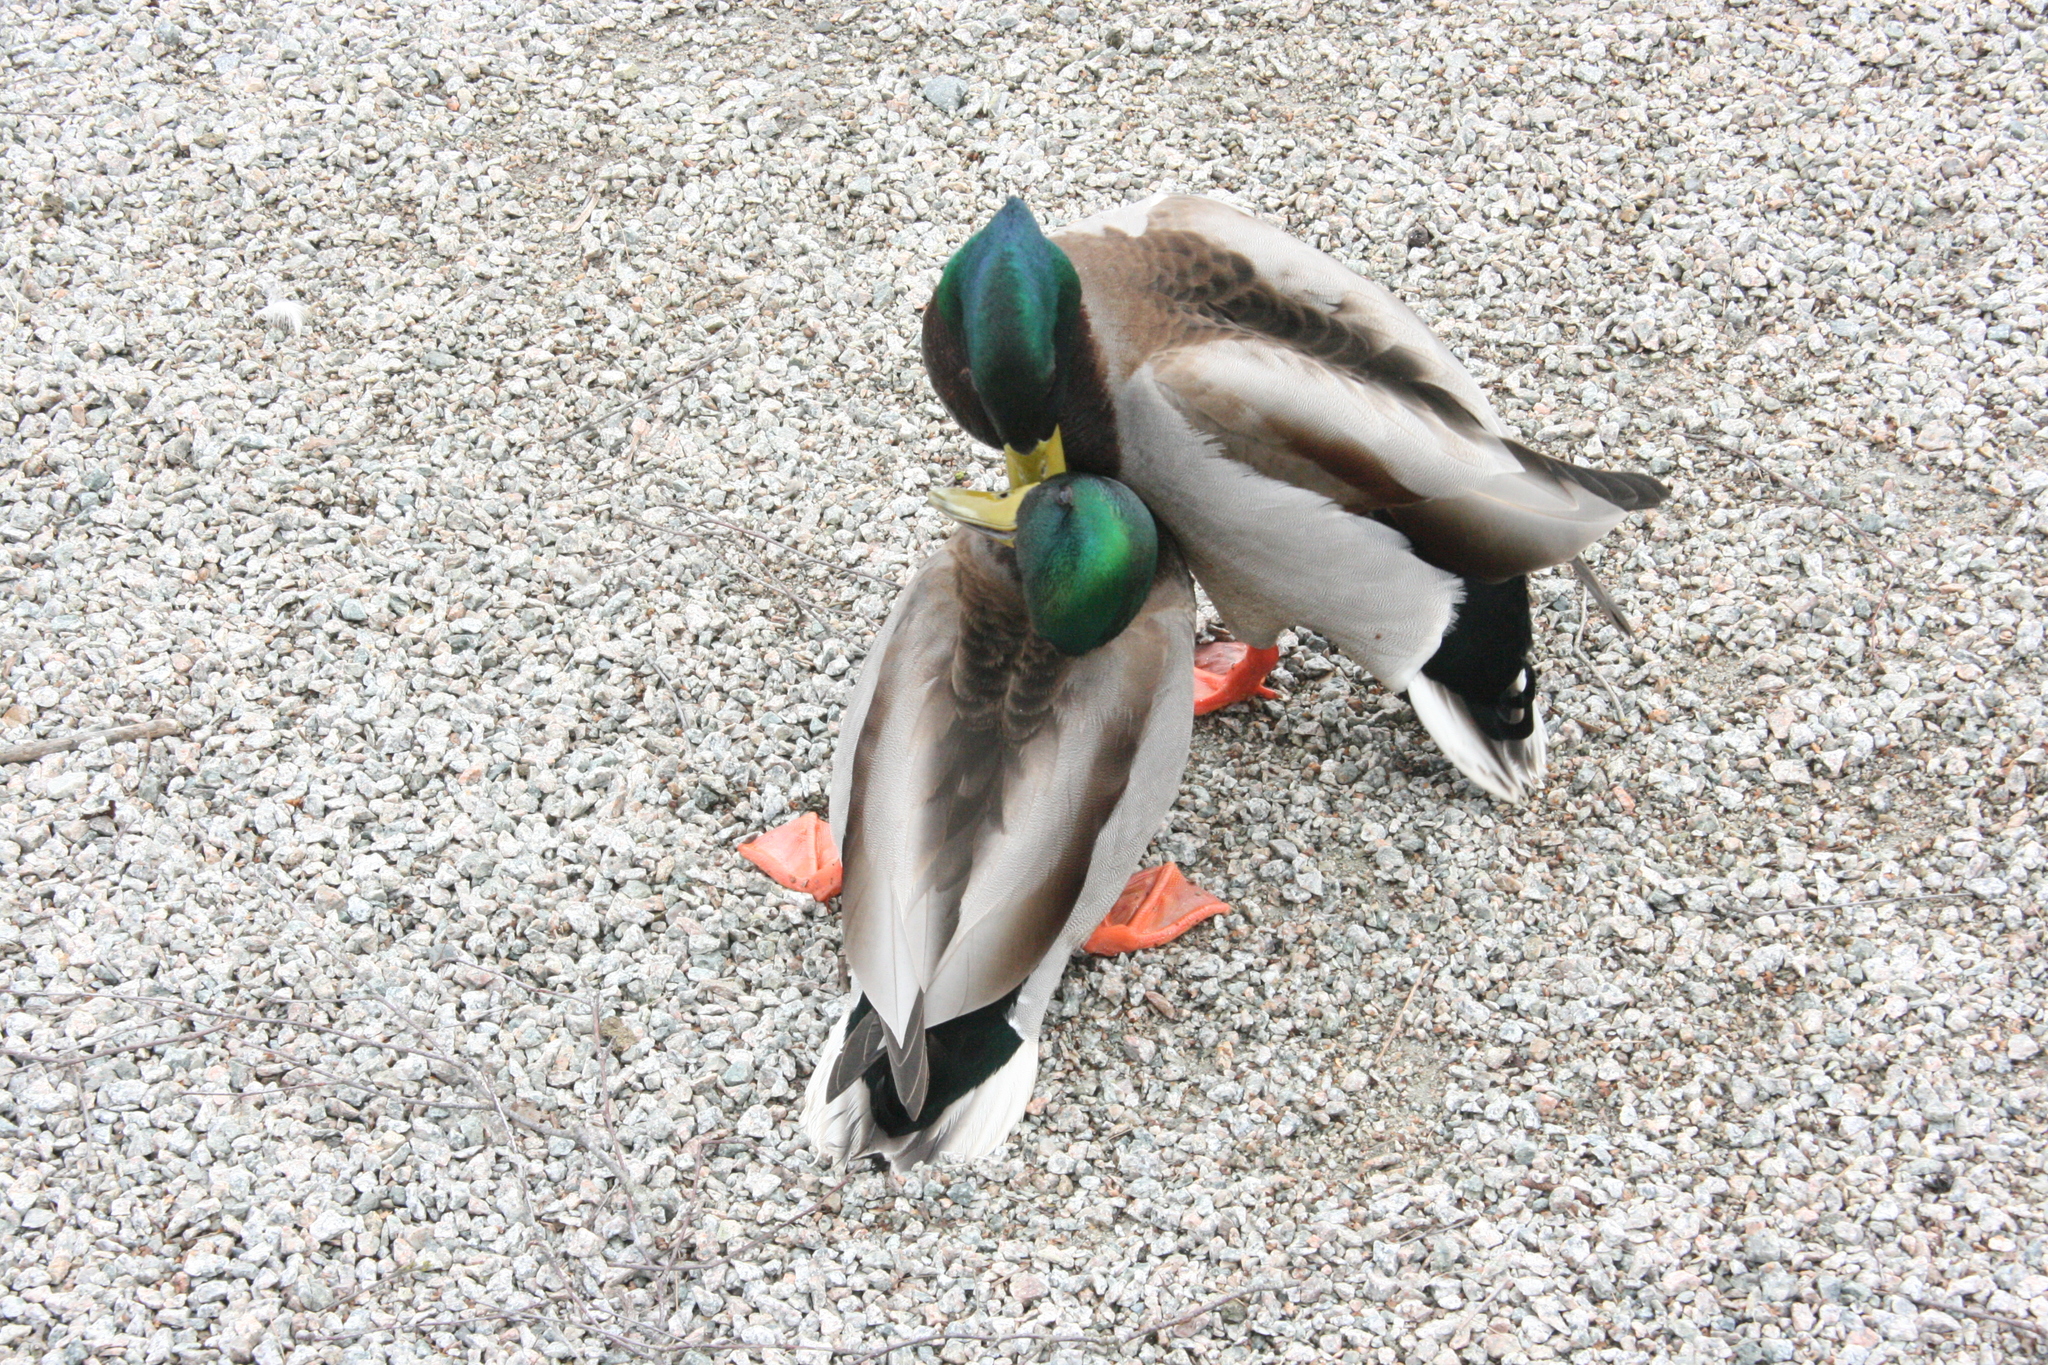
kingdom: Animalia
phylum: Chordata
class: Aves
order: Anseriformes
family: Anatidae
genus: Anas
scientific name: Anas platyrhynchos
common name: Mallard
